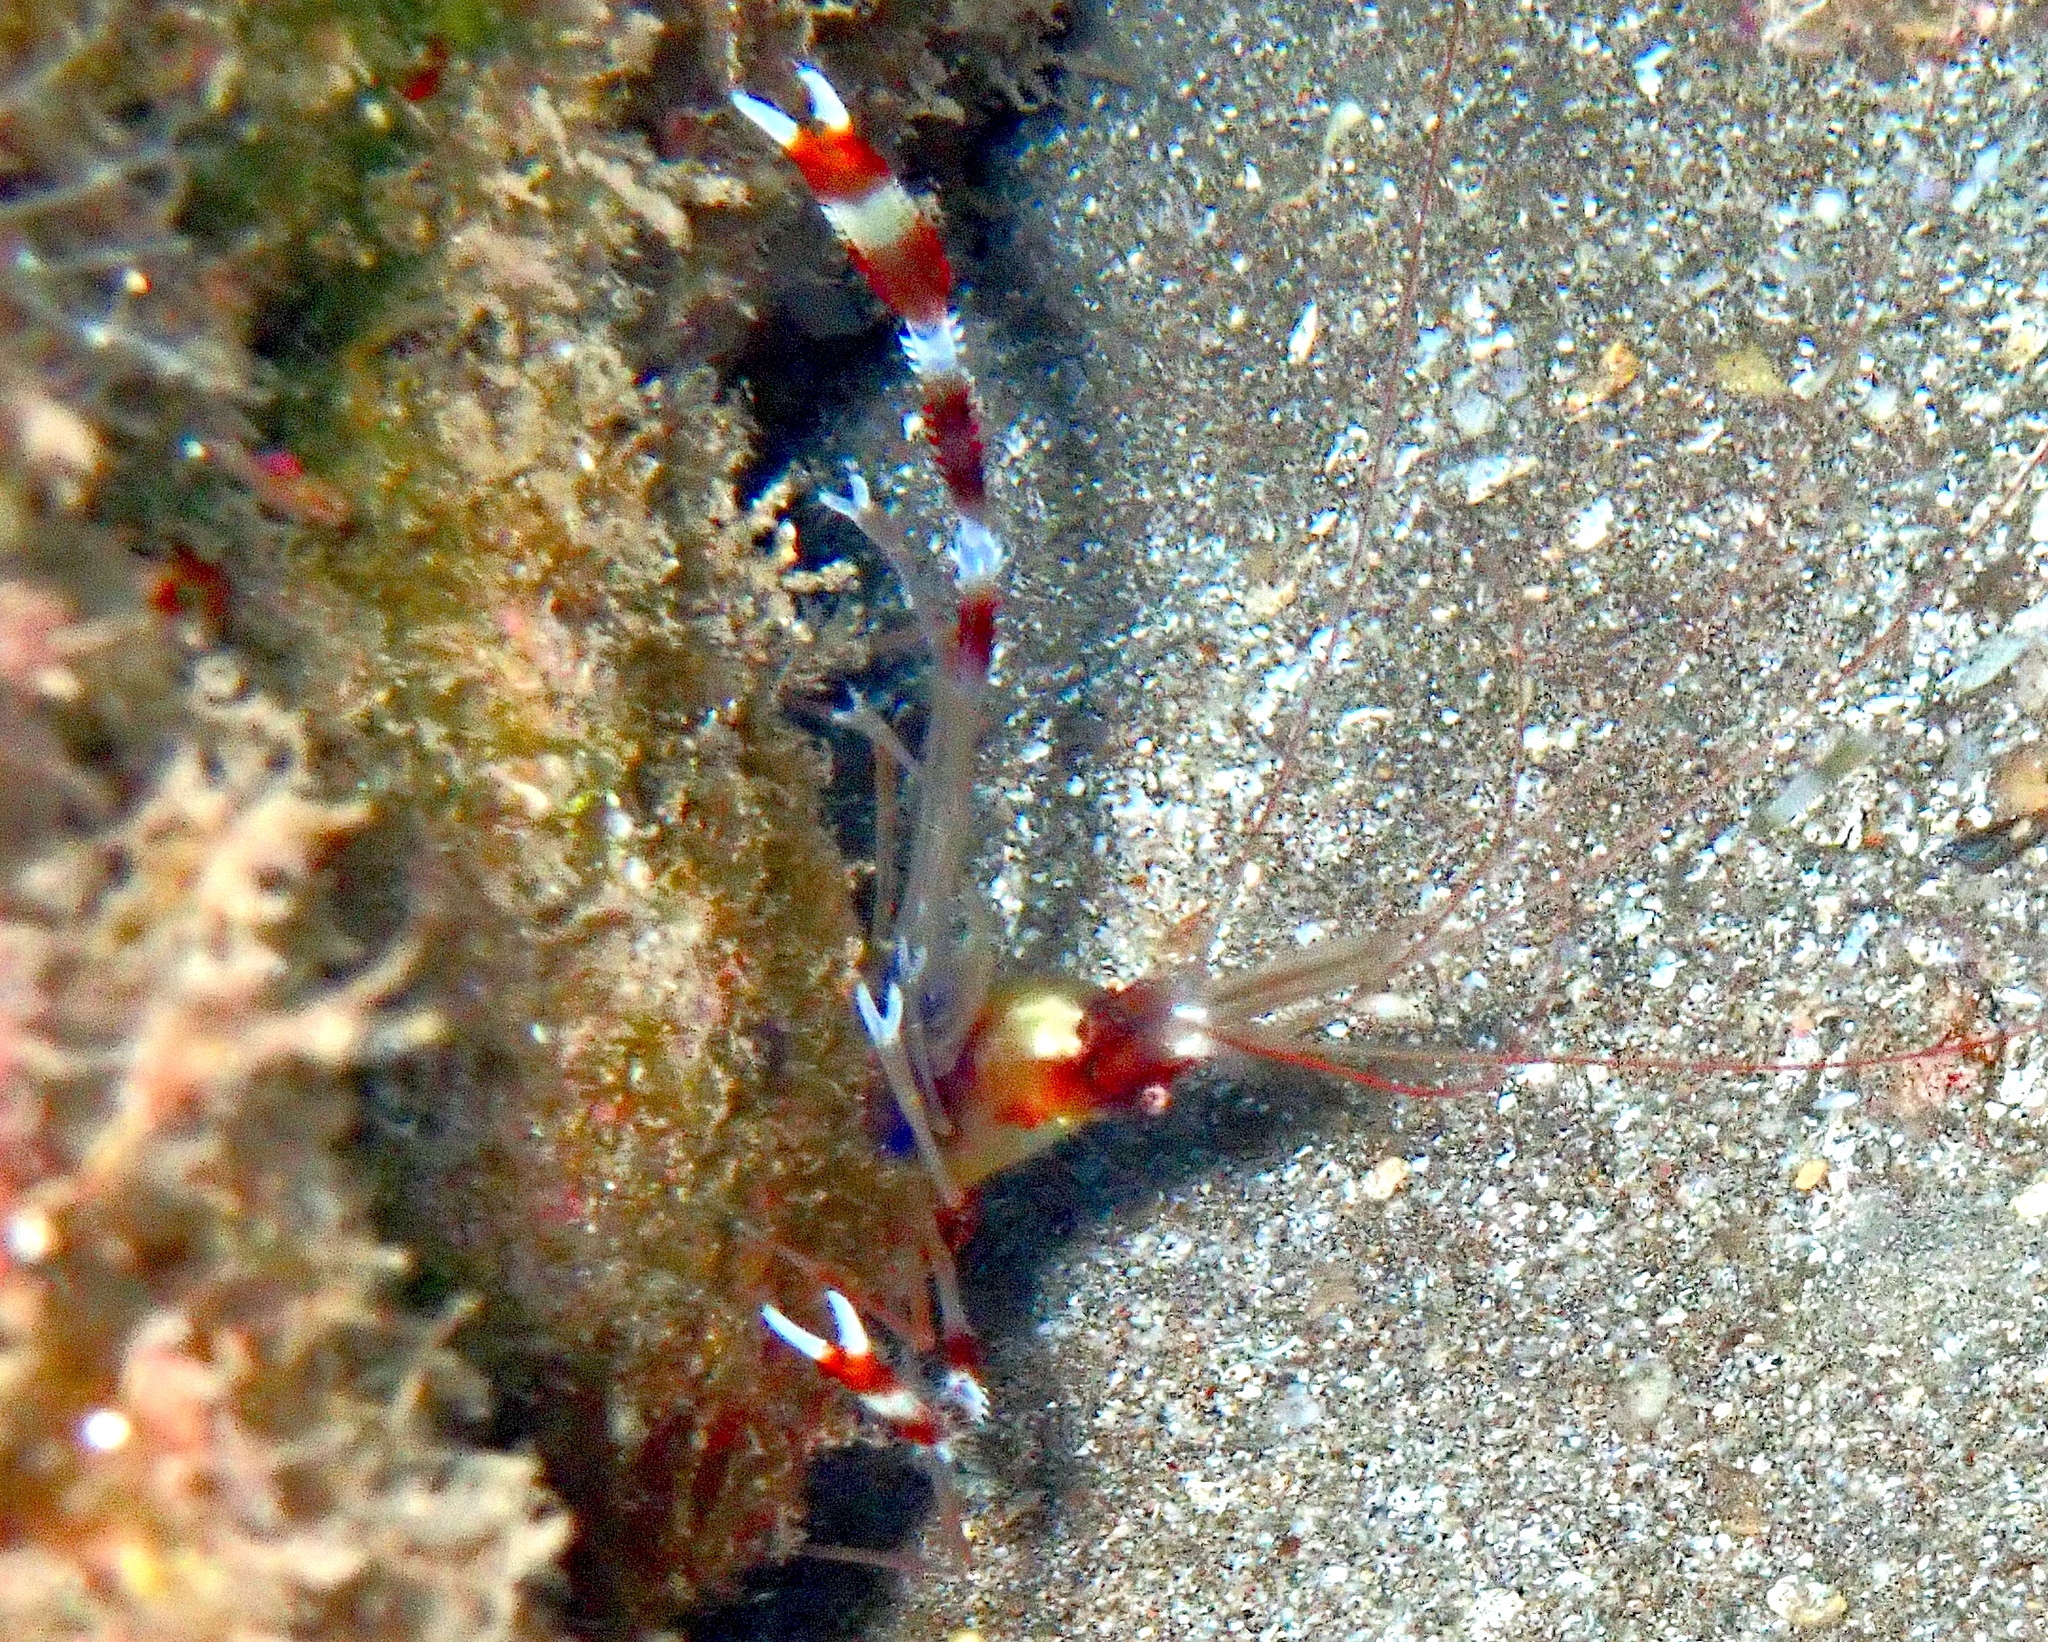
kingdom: Animalia
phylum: Arthropoda
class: Malacostraca
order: Decapoda
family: Stenopodidae
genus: Stenopus
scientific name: Stenopus hispidus
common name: Banded coral shrimp
